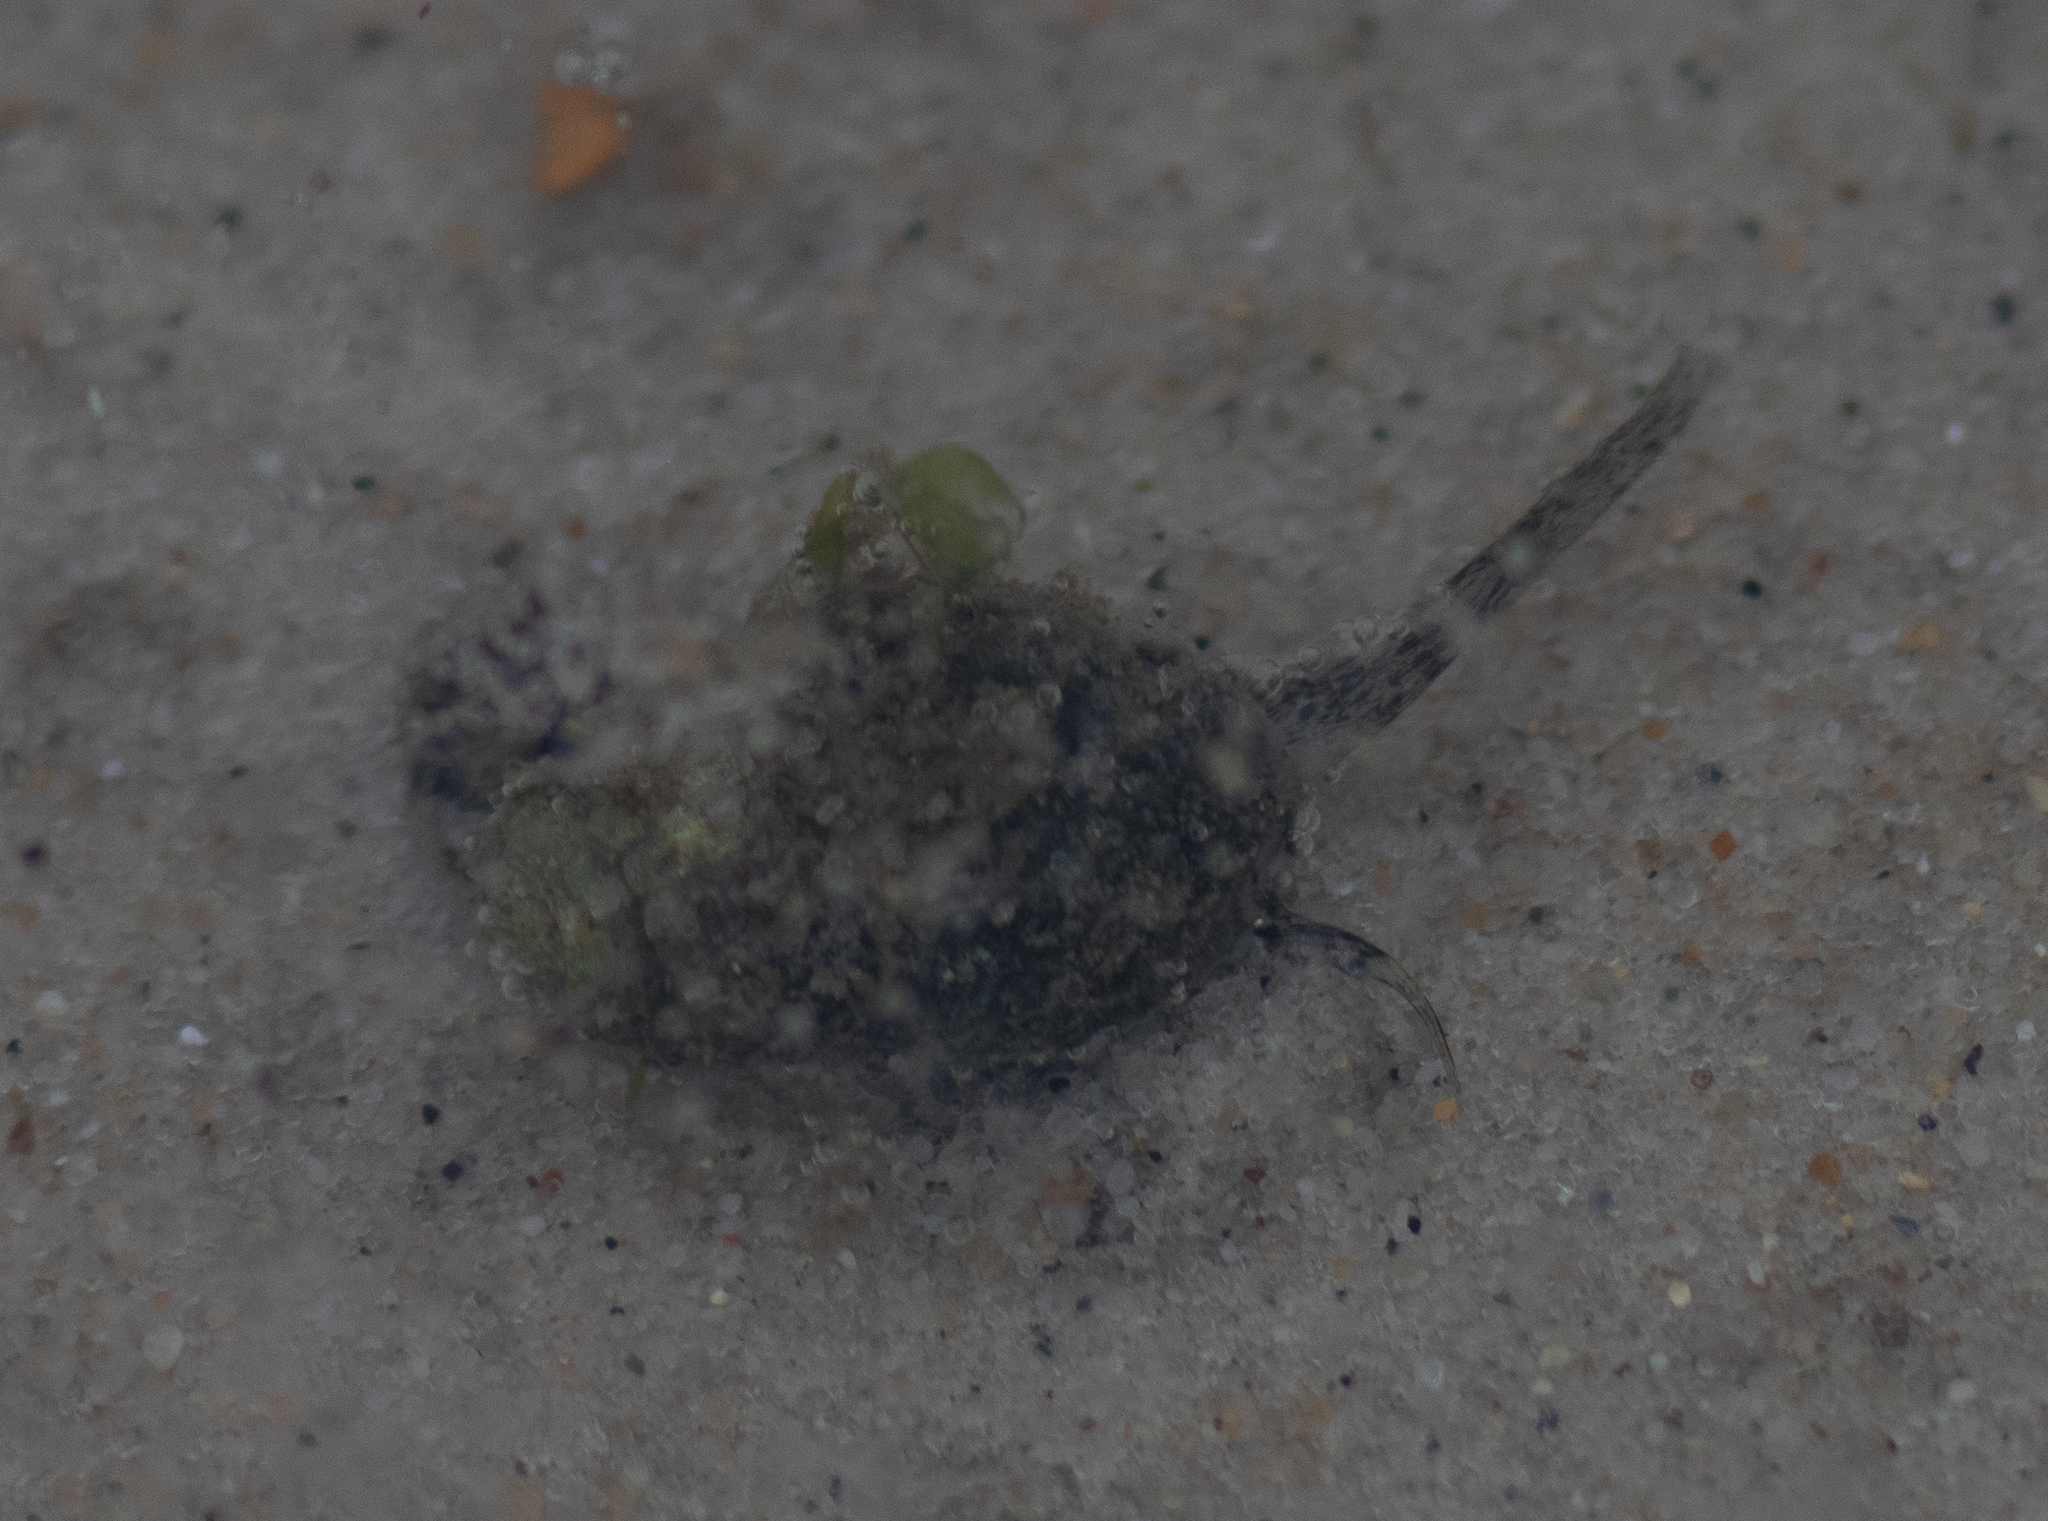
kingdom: Animalia
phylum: Mollusca
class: Gastropoda
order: Neogastropoda
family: Nassariidae
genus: Ilyanassa
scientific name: Ilyanassa obsoleta
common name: Eastern mudsnail
